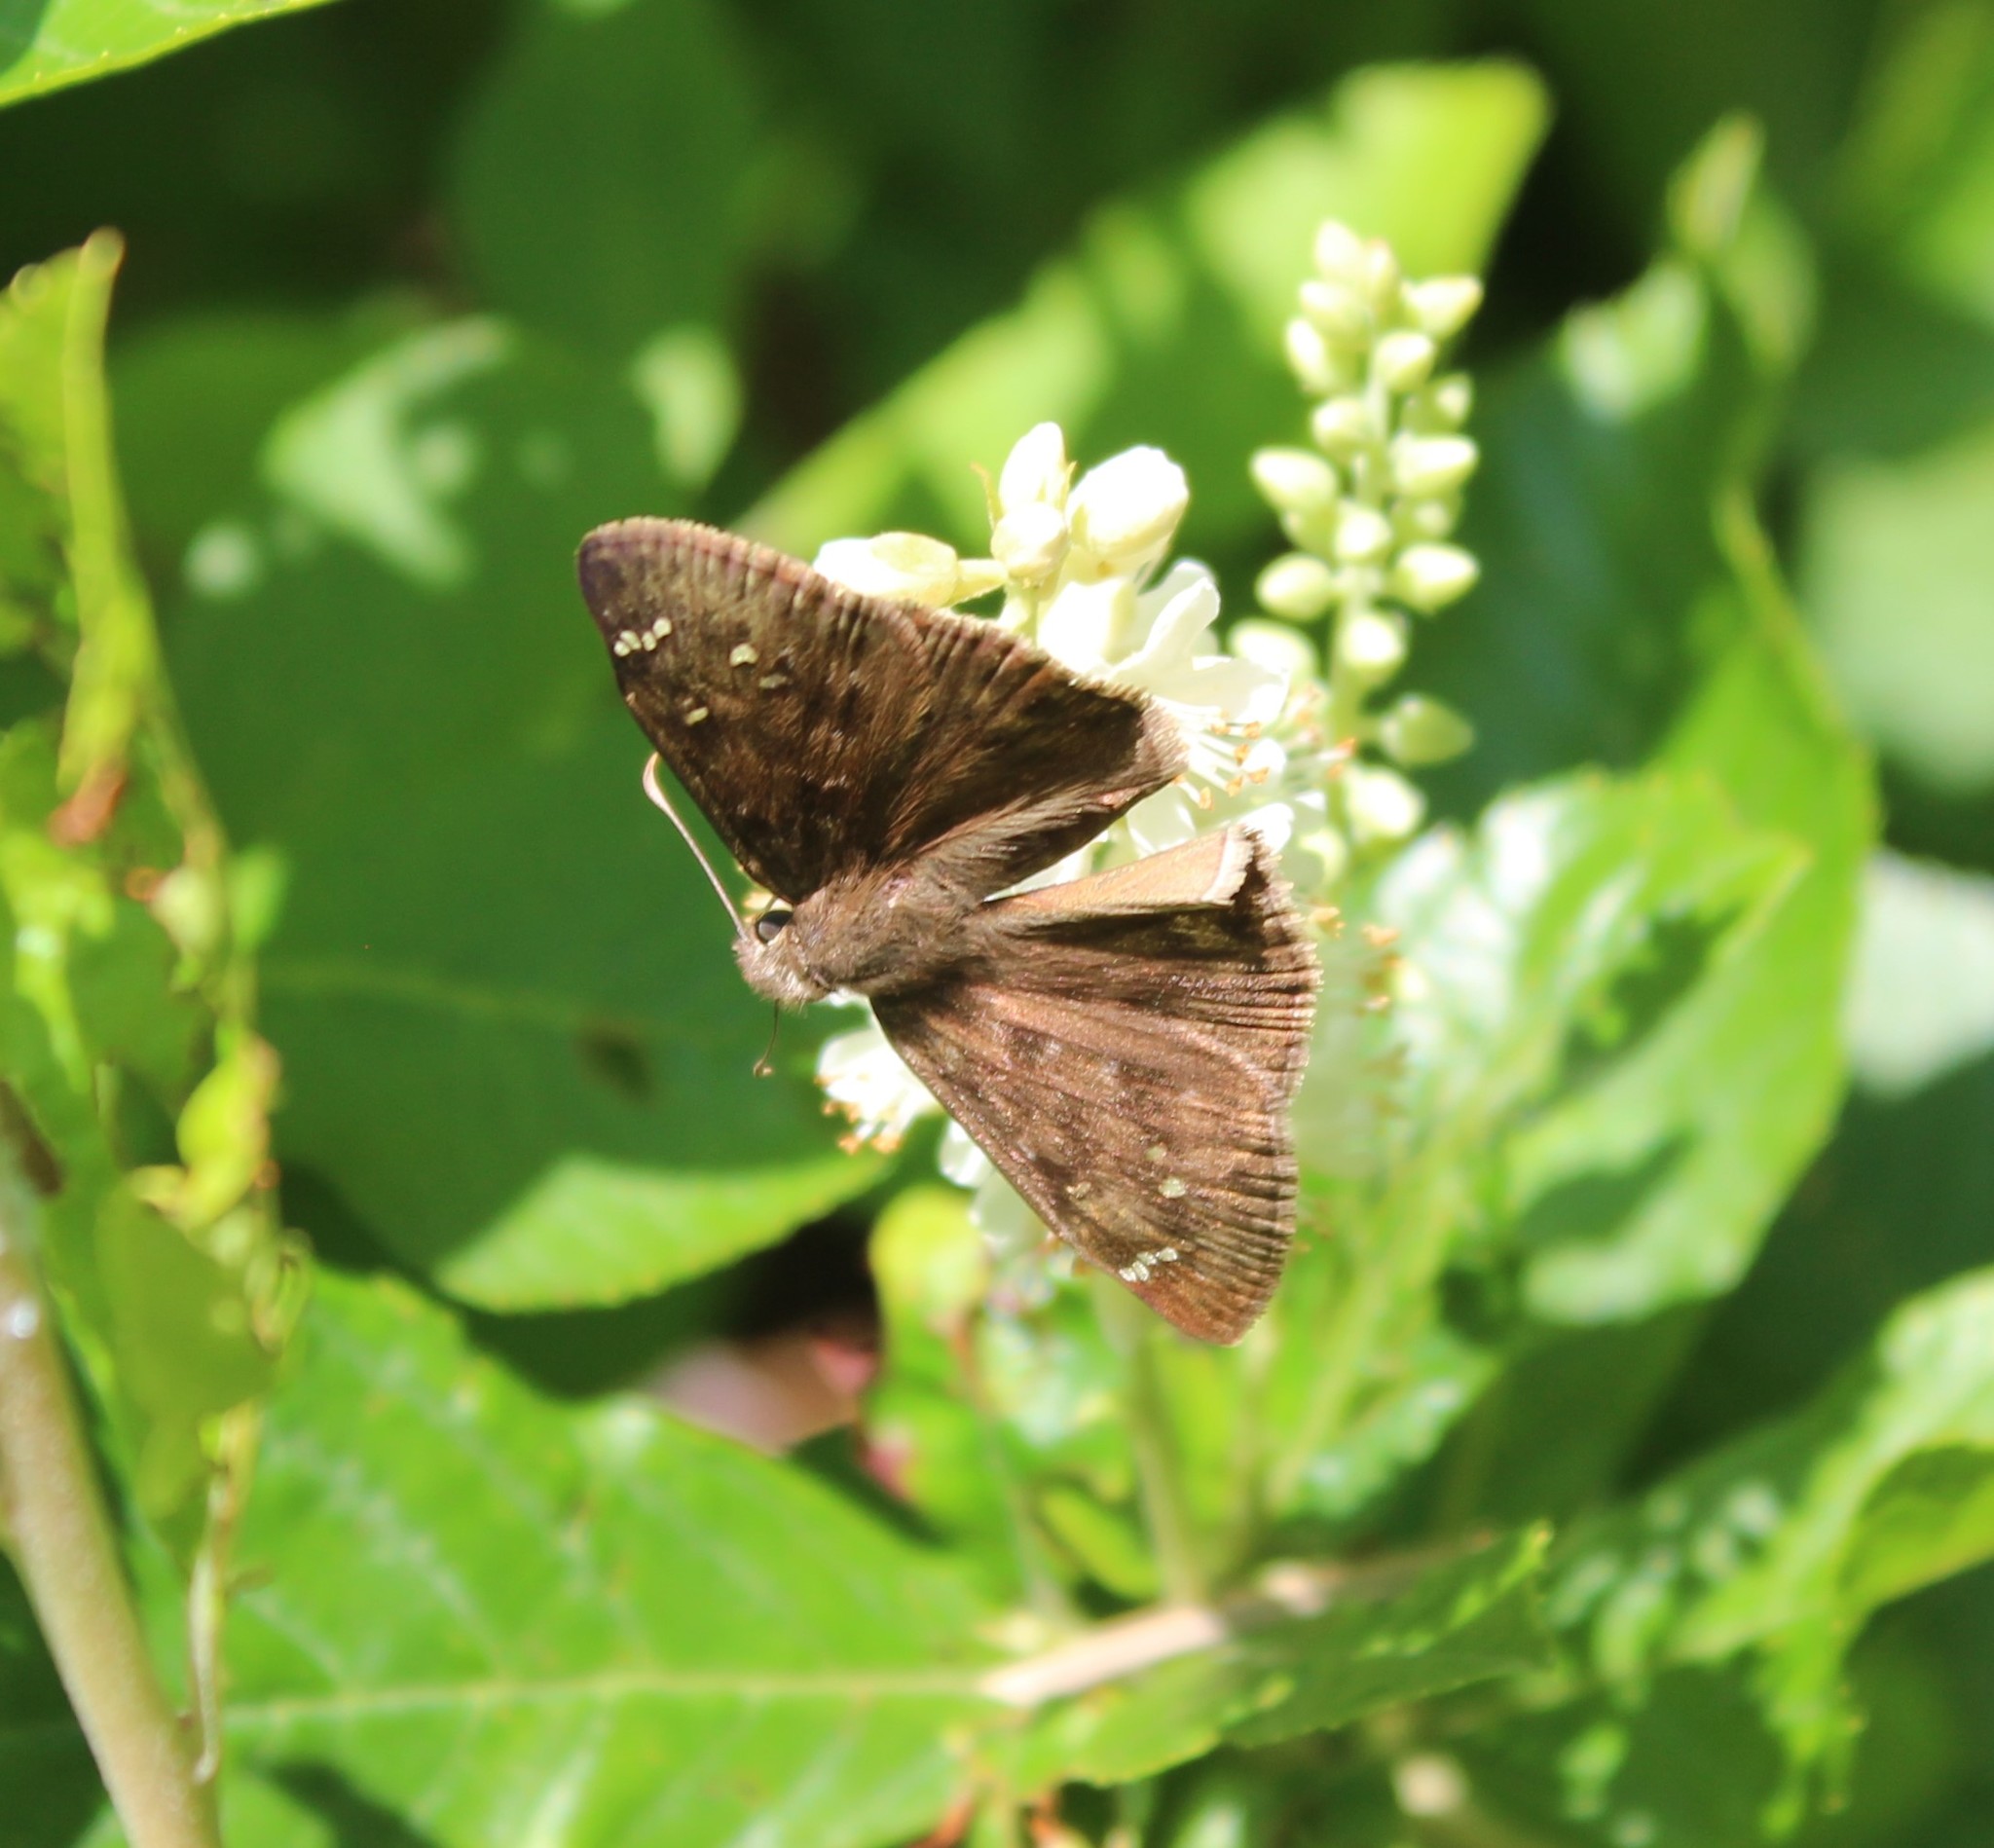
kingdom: Animalia
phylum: Arthropoda
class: Insecta
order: Lepidoptera
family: Hesperiidae
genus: Erynnis
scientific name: Erynnis horatius
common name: Horace's duskywing
